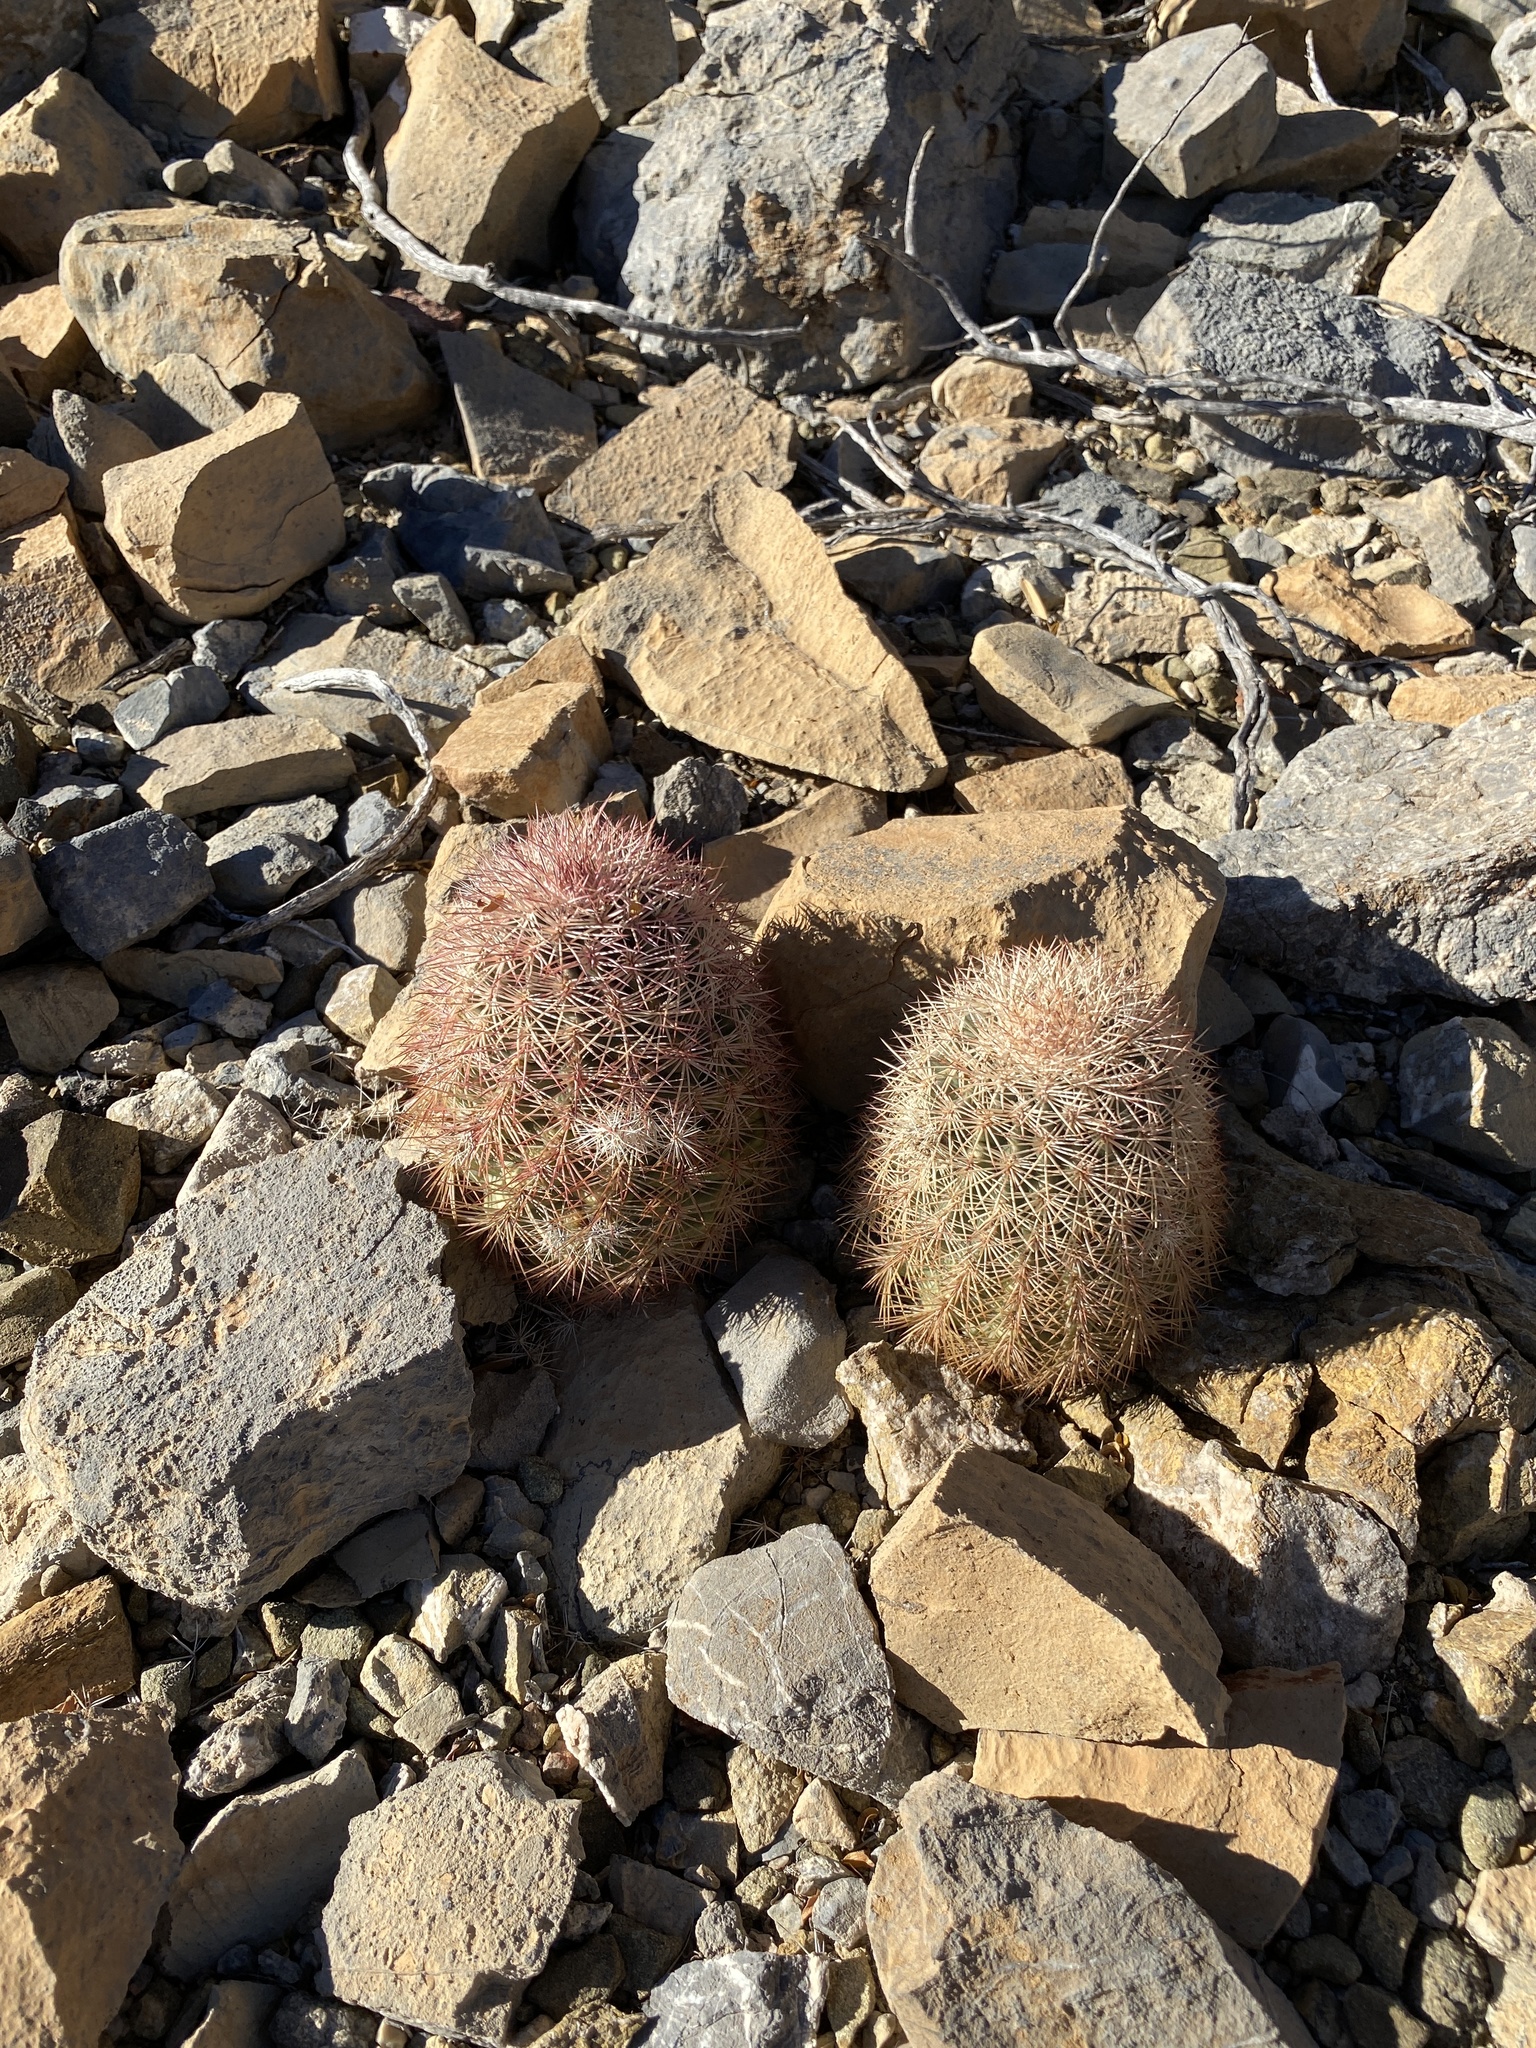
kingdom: Plantae
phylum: Tracheophyta
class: Magnoliopsida
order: Caryophyllales
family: Cactaceae
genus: Echinocereus
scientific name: Echinocereus dasyacanthus
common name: Spiny hedgehog cactus
